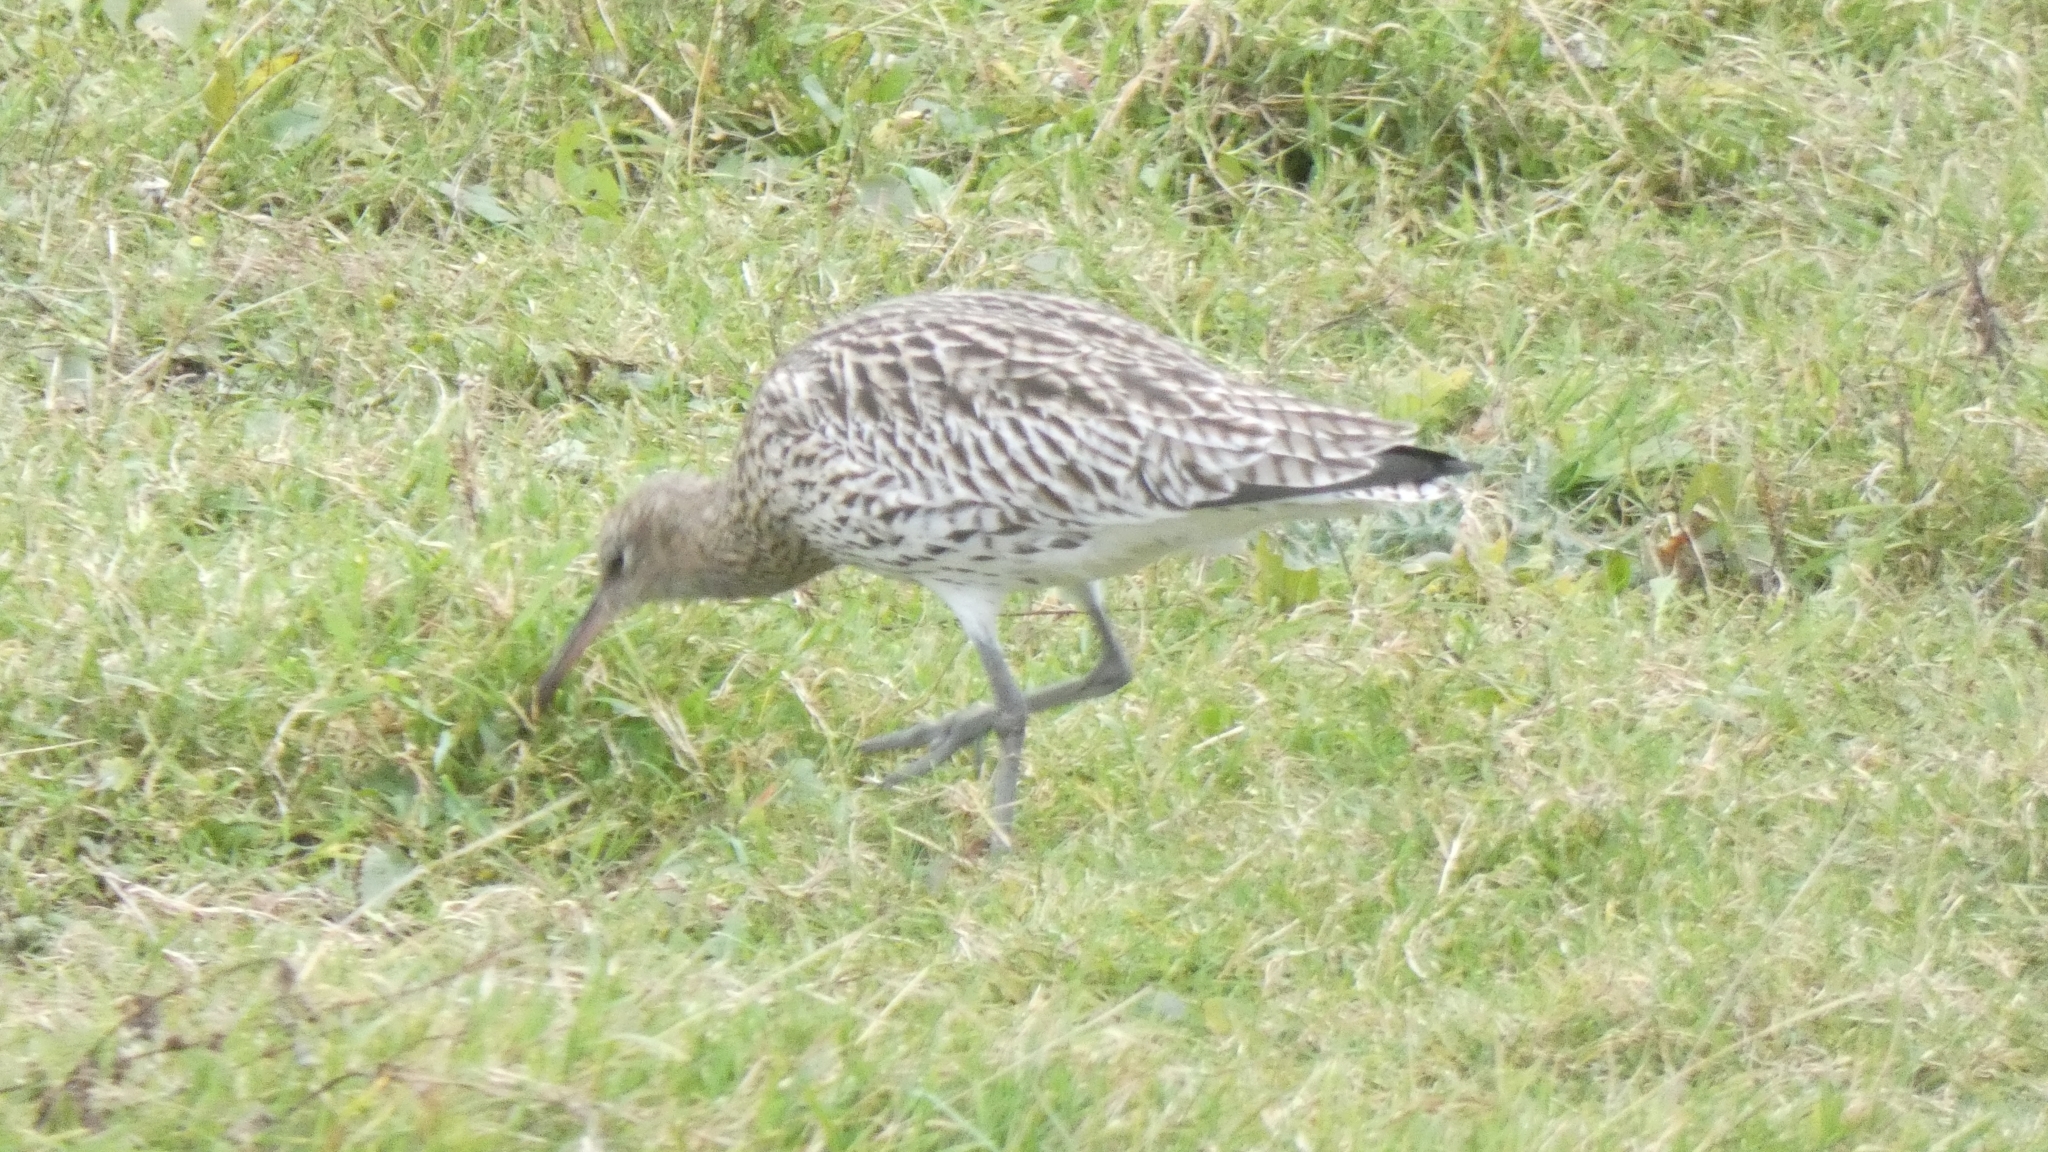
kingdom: Animalia
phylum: Chordata
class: Aves
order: Charadriiformes
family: Scolopacidae
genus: Numenius
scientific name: Numenius arquata
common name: Eurasian curlew
